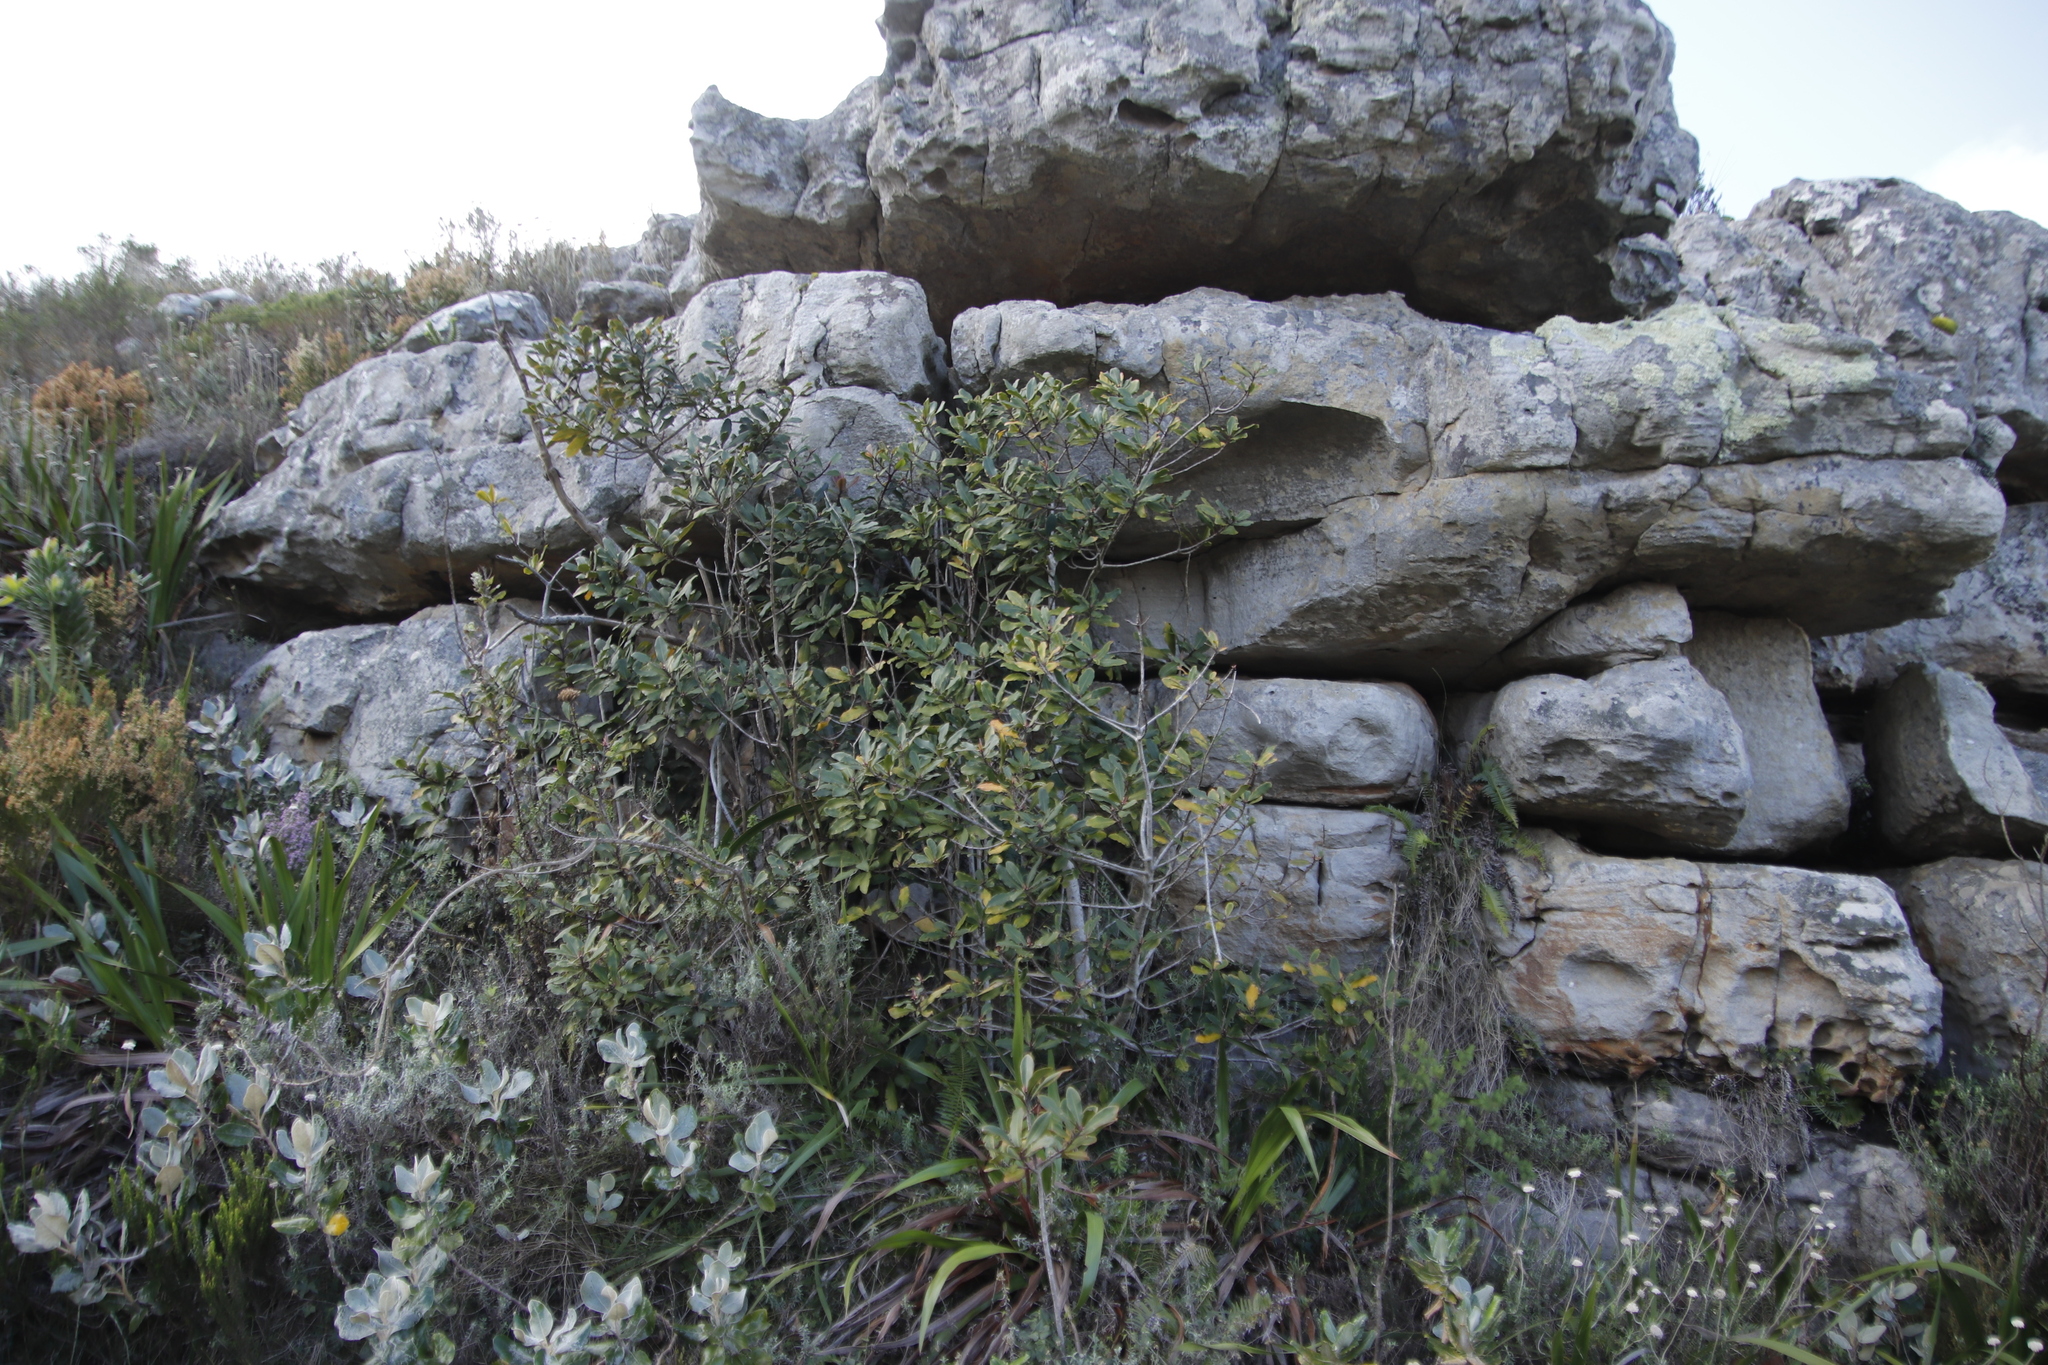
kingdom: Plantae
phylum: Tracheophyta
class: Magnoliopsida
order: Ericales
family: Primulaceae
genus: Myrsine
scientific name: Myrsine melanophloeos
